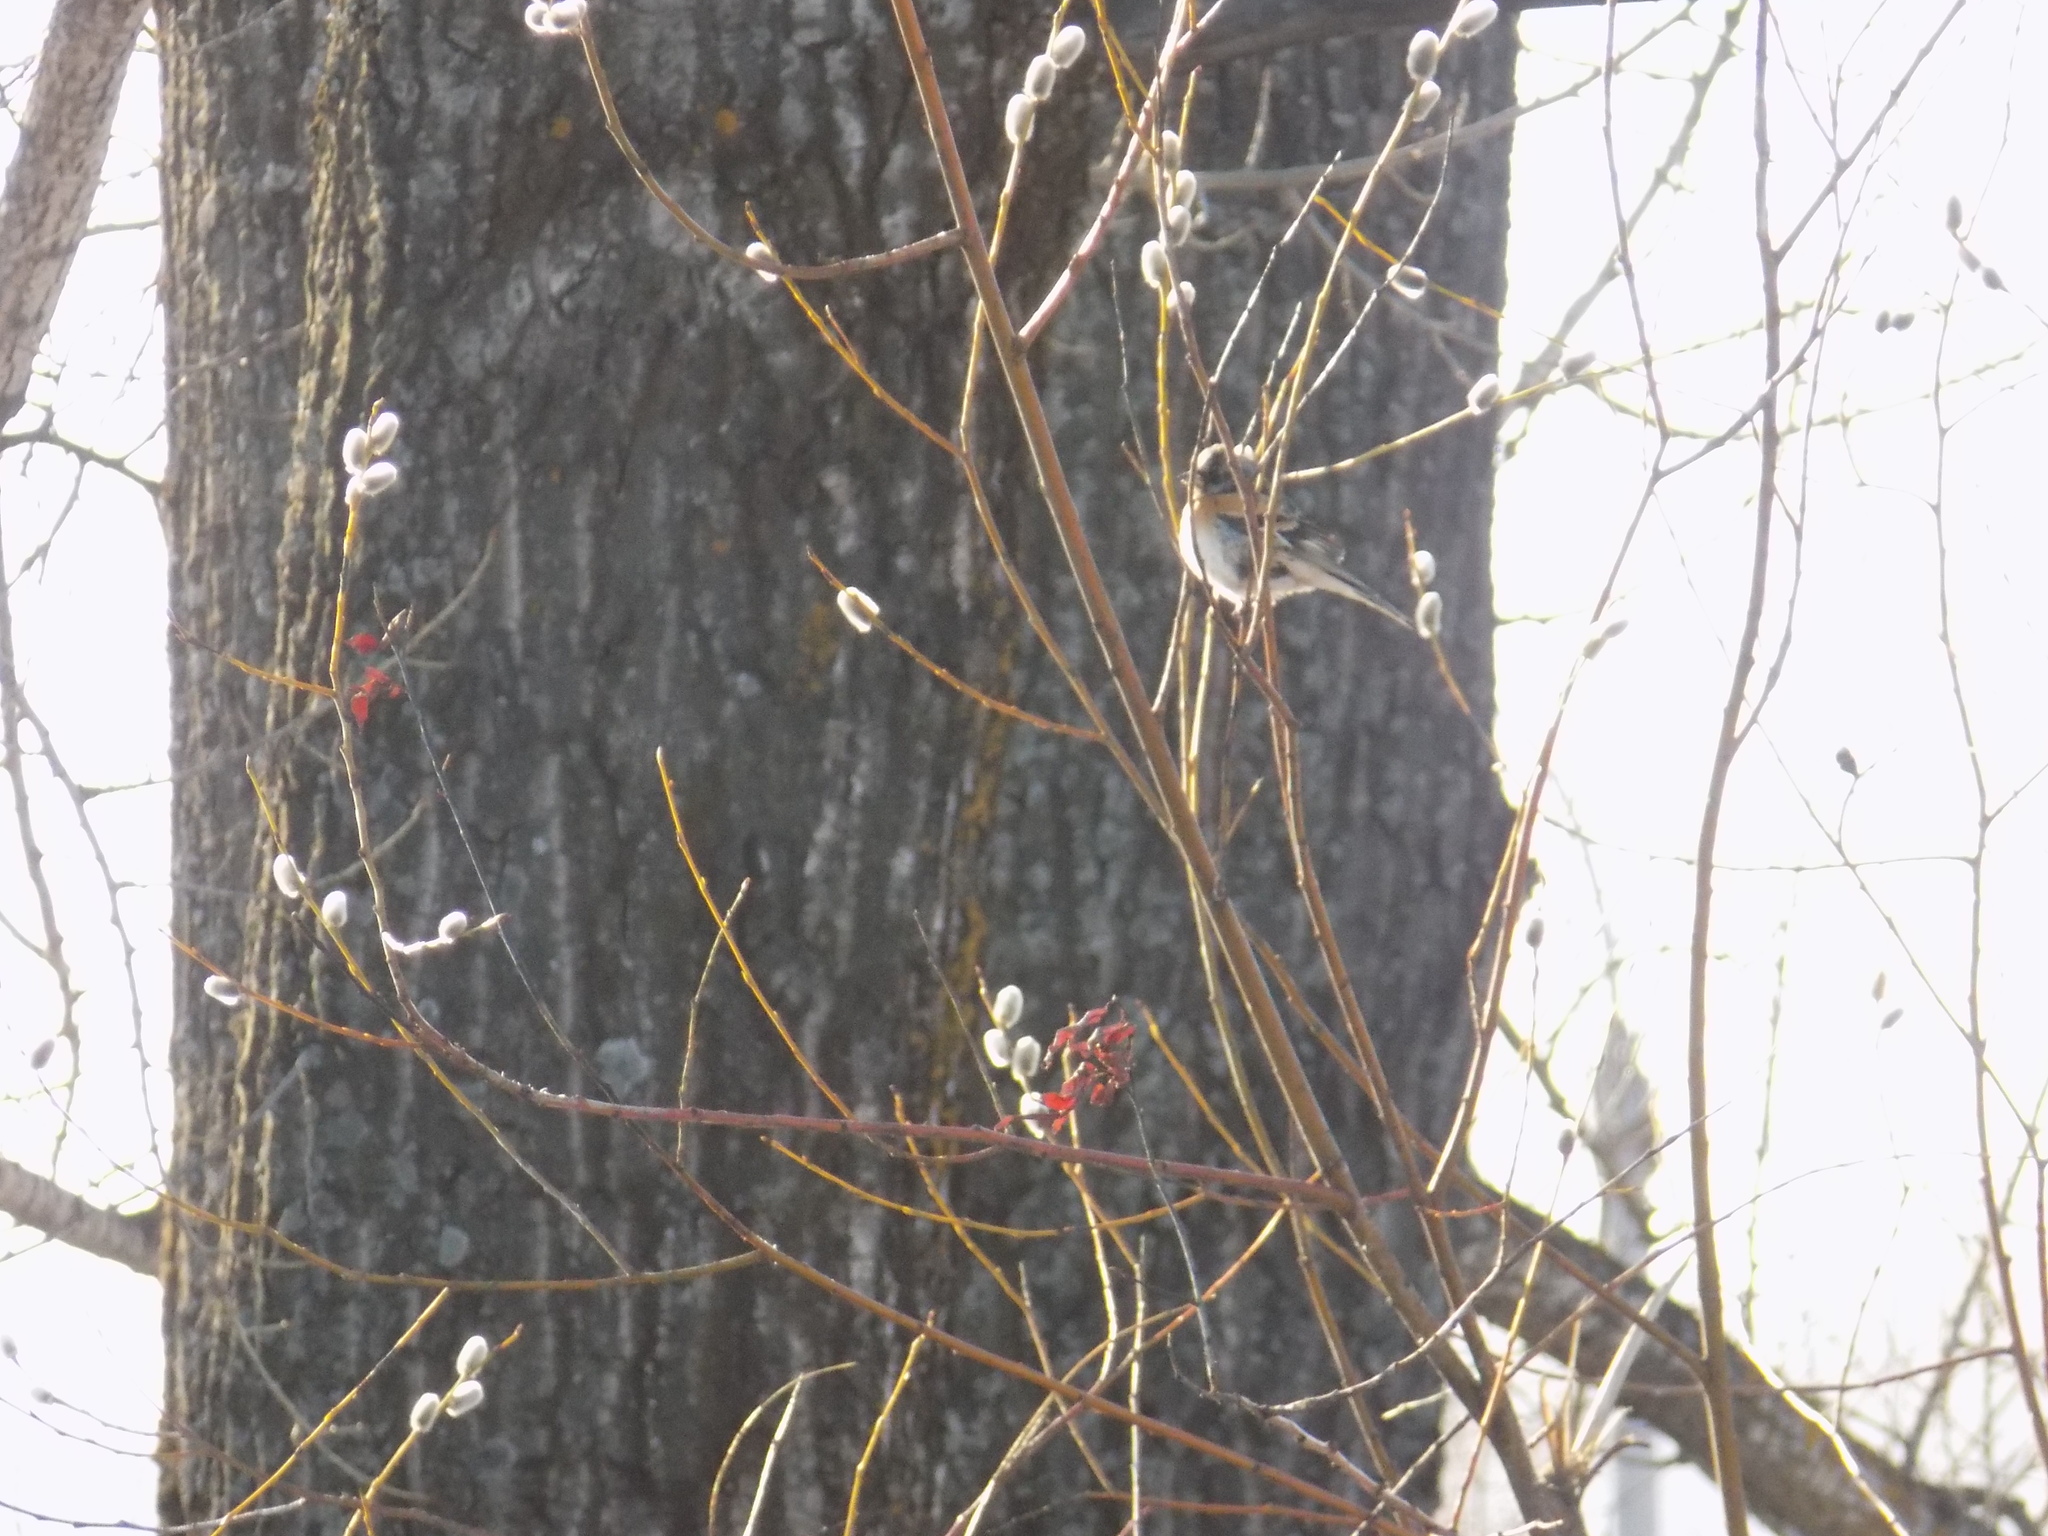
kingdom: Animalia
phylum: Chordata
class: Aves
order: Passeriformes
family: Fringillidae
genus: Fringilla
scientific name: Fringilla montifringilla
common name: Brambling
